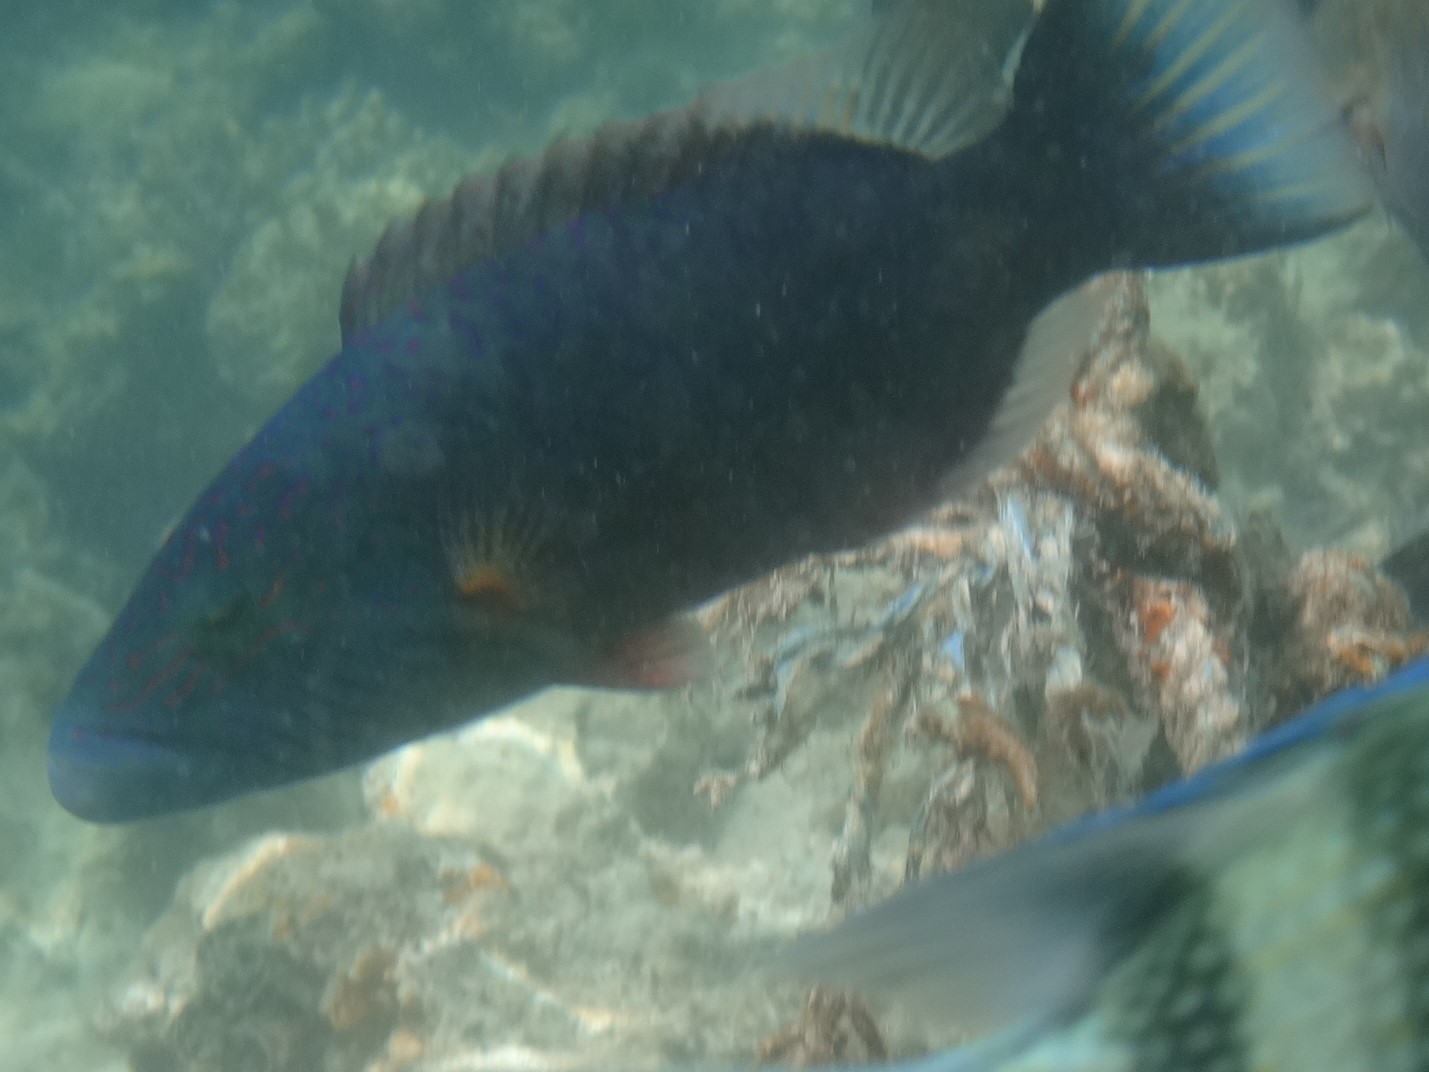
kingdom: Animalia
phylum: Chordata
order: Perciformes
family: Labridae
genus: Oxycheilinus
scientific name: Oxycheilinus digramma
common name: Bandcheek wrasse
